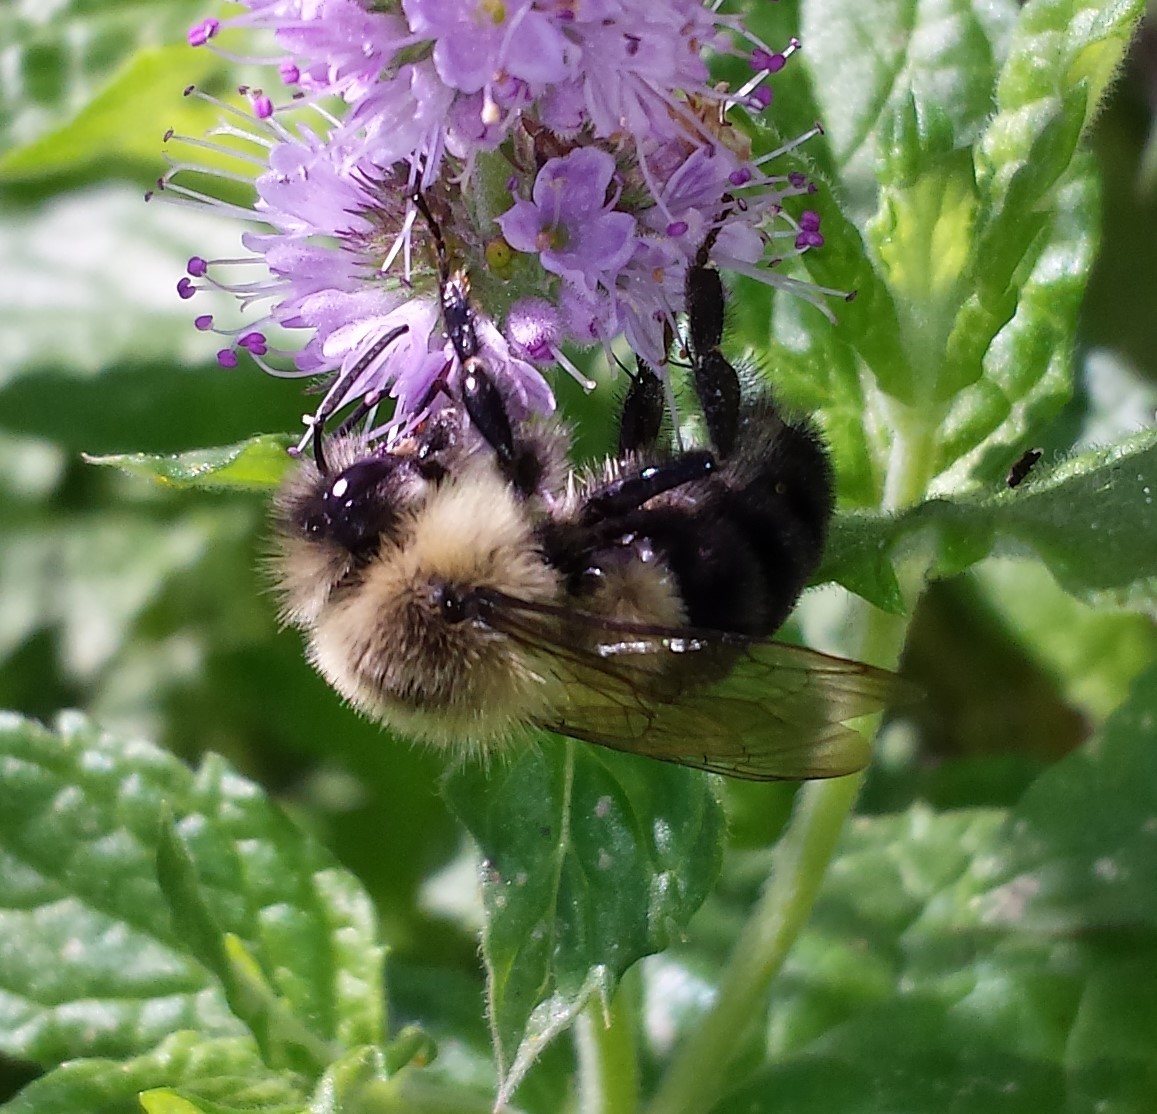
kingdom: Animalia
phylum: Arthropoda
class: Insecta
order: Hymenoptera
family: Apidae
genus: Bombus
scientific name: Bombus impatiens
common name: Common eastern bumble bee
